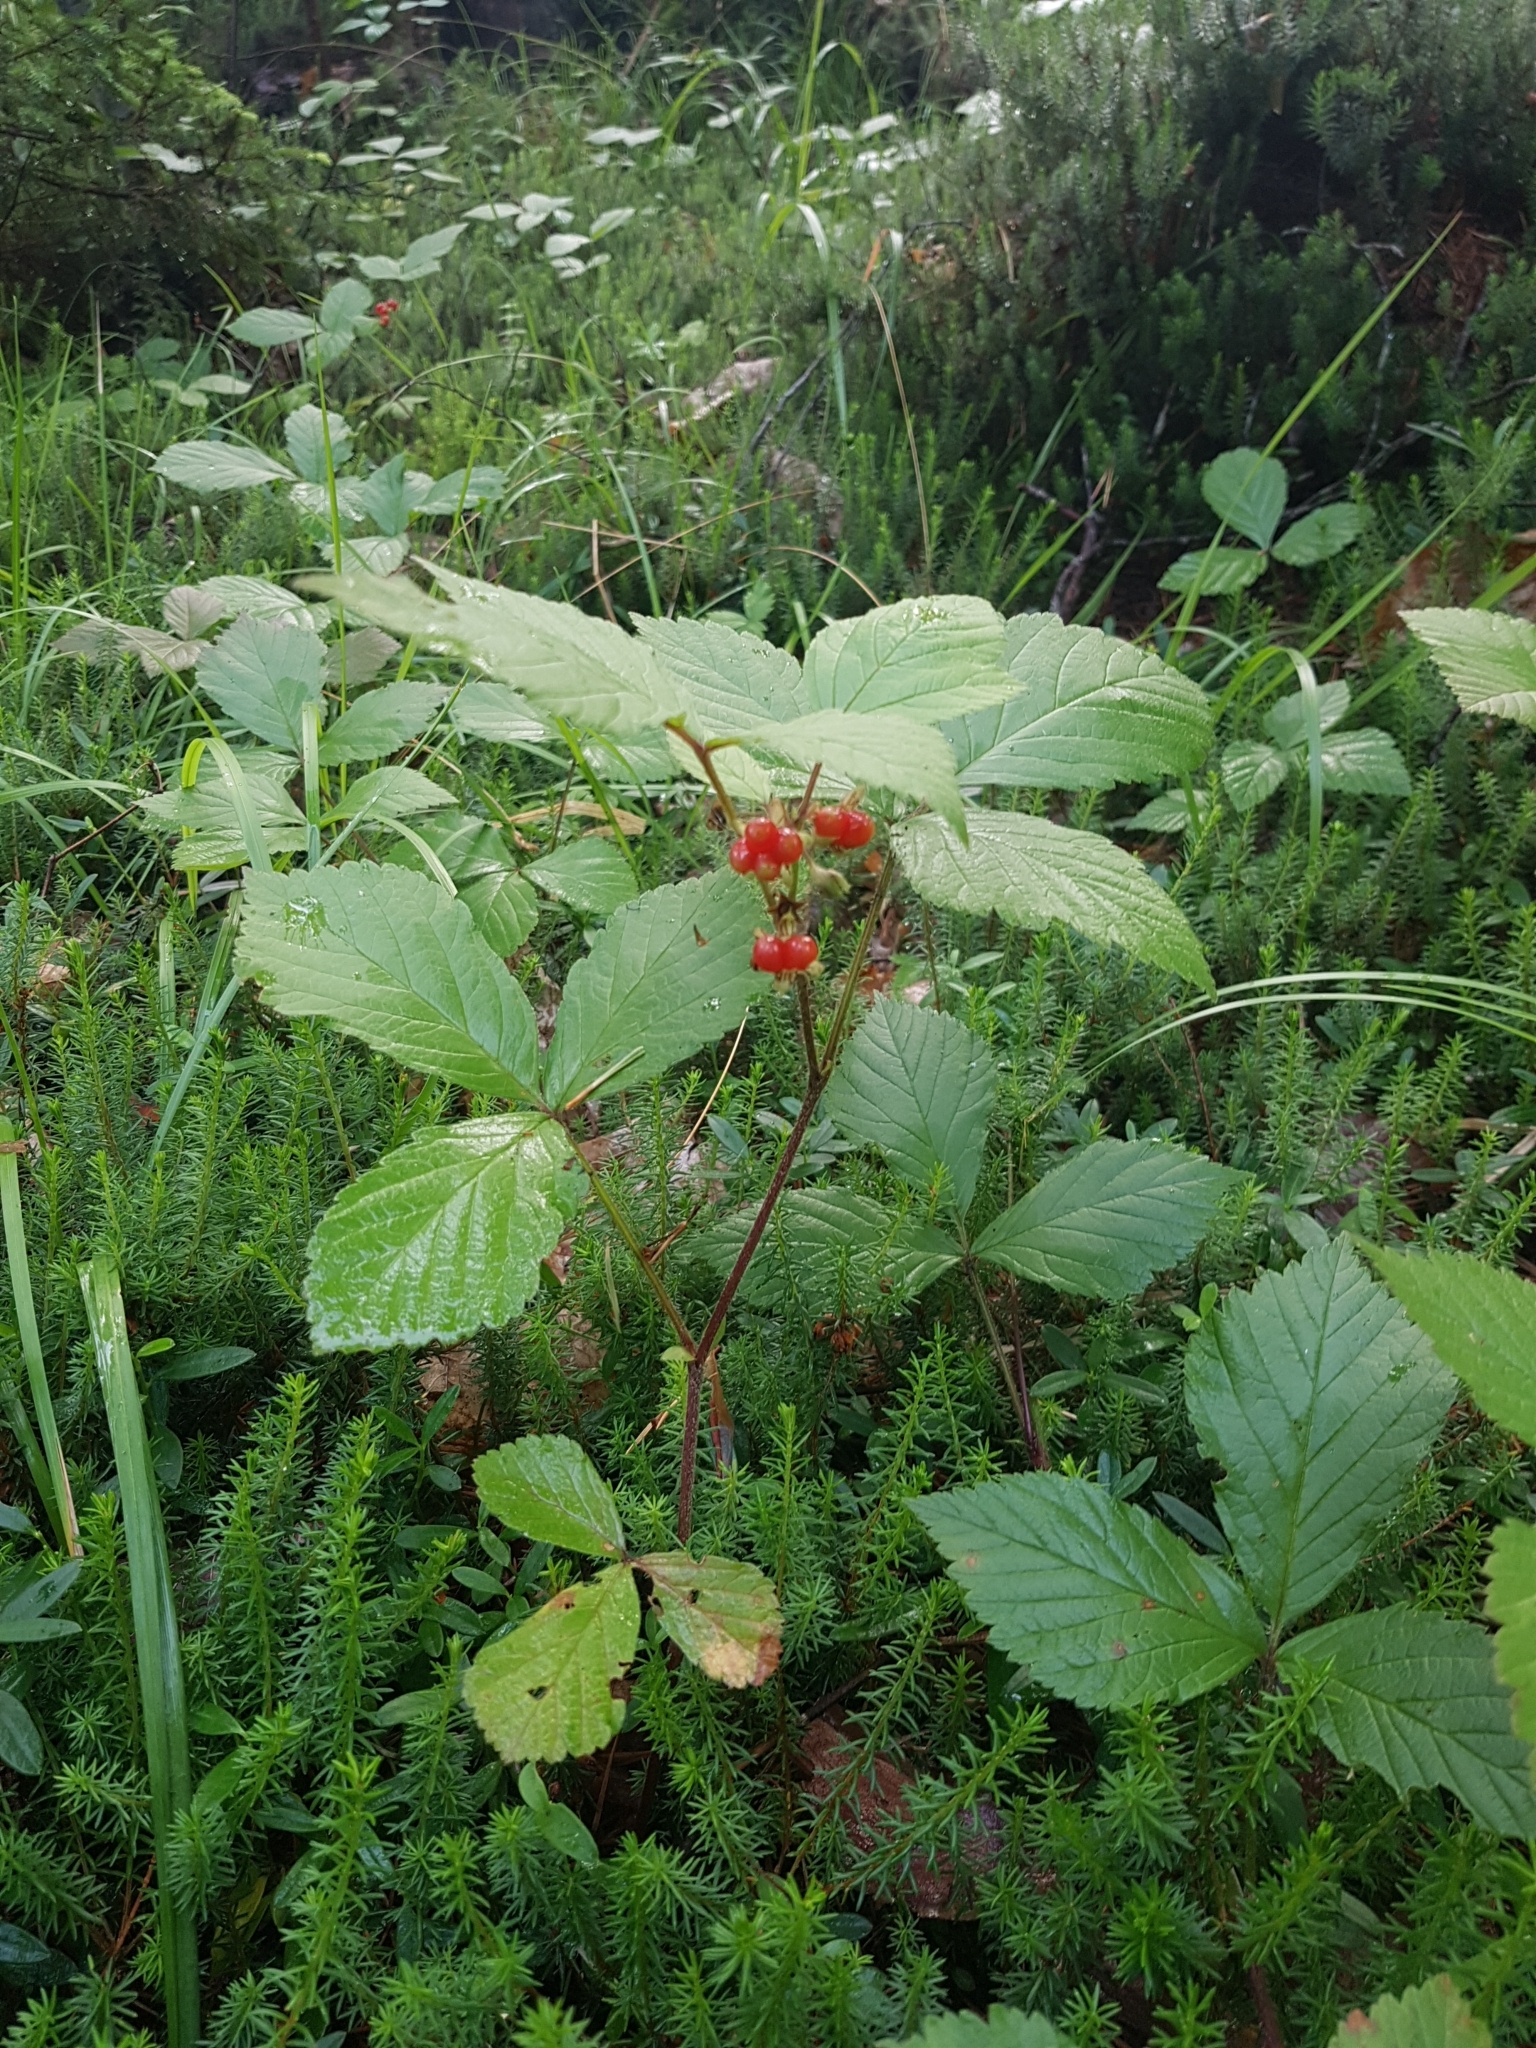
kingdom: Plantae
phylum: Tracheophyta
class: Magnoliopsida
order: Rosales
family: Rosaceae
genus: Rubus
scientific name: Rubus saxatilis
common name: Stone bramble
